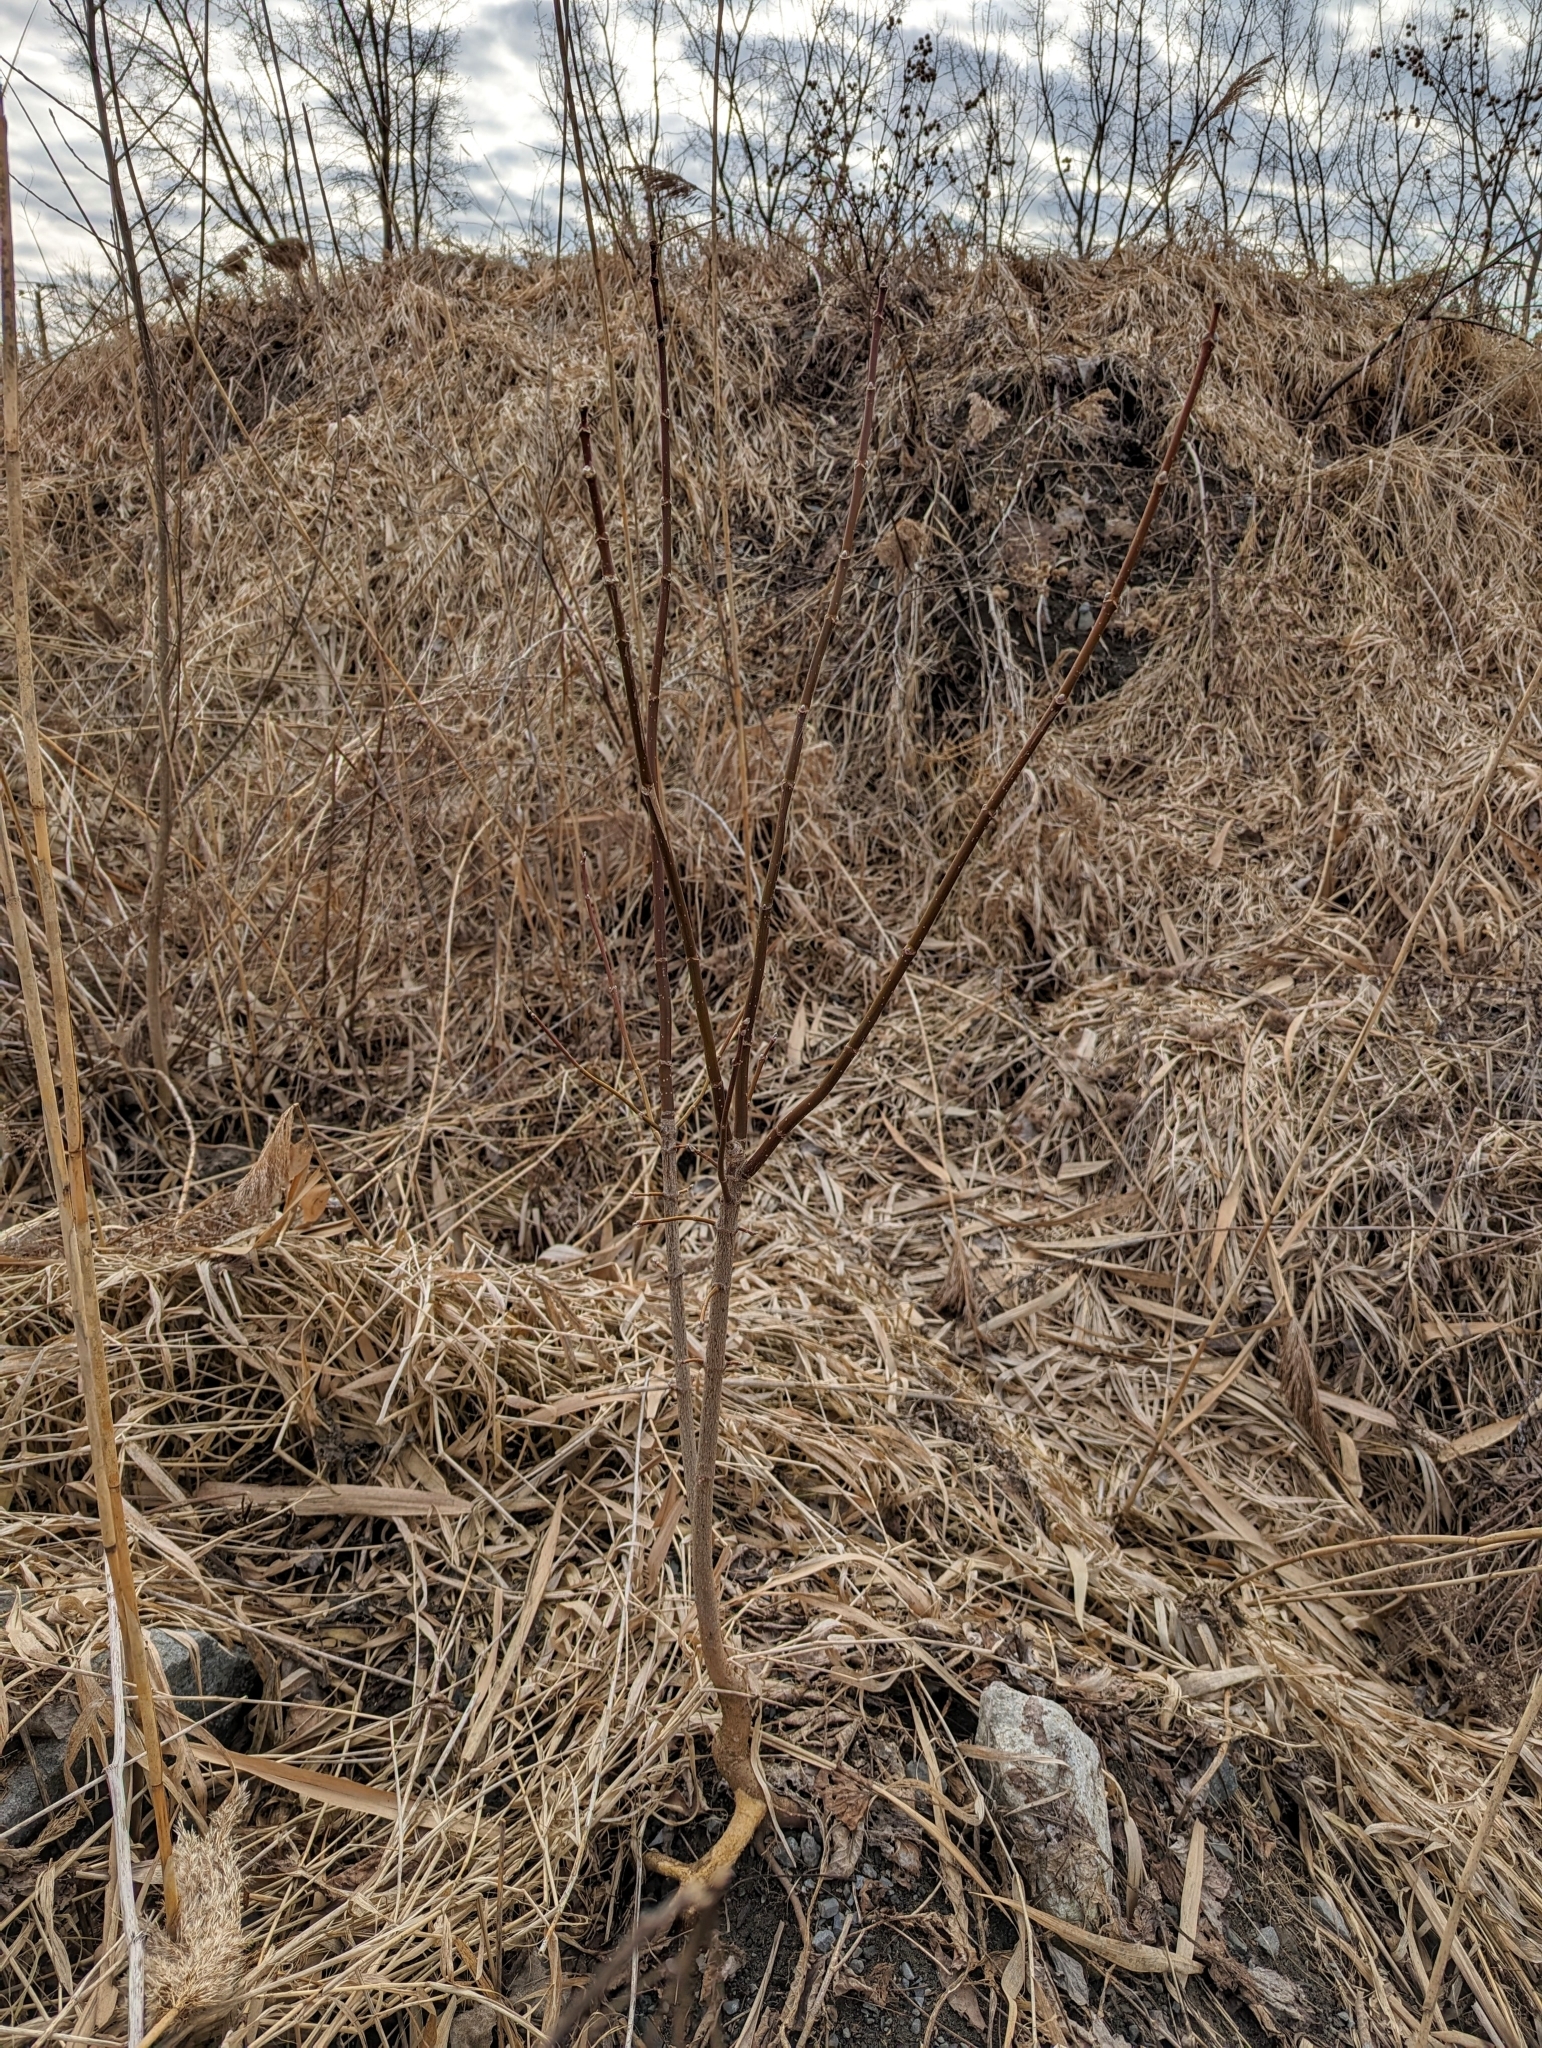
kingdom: Plantae
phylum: Tracheophyta
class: Magnoliopsida
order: Sapindales
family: Sapindaceae
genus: Acer
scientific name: Acer negundo
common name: Ashleaf maple
